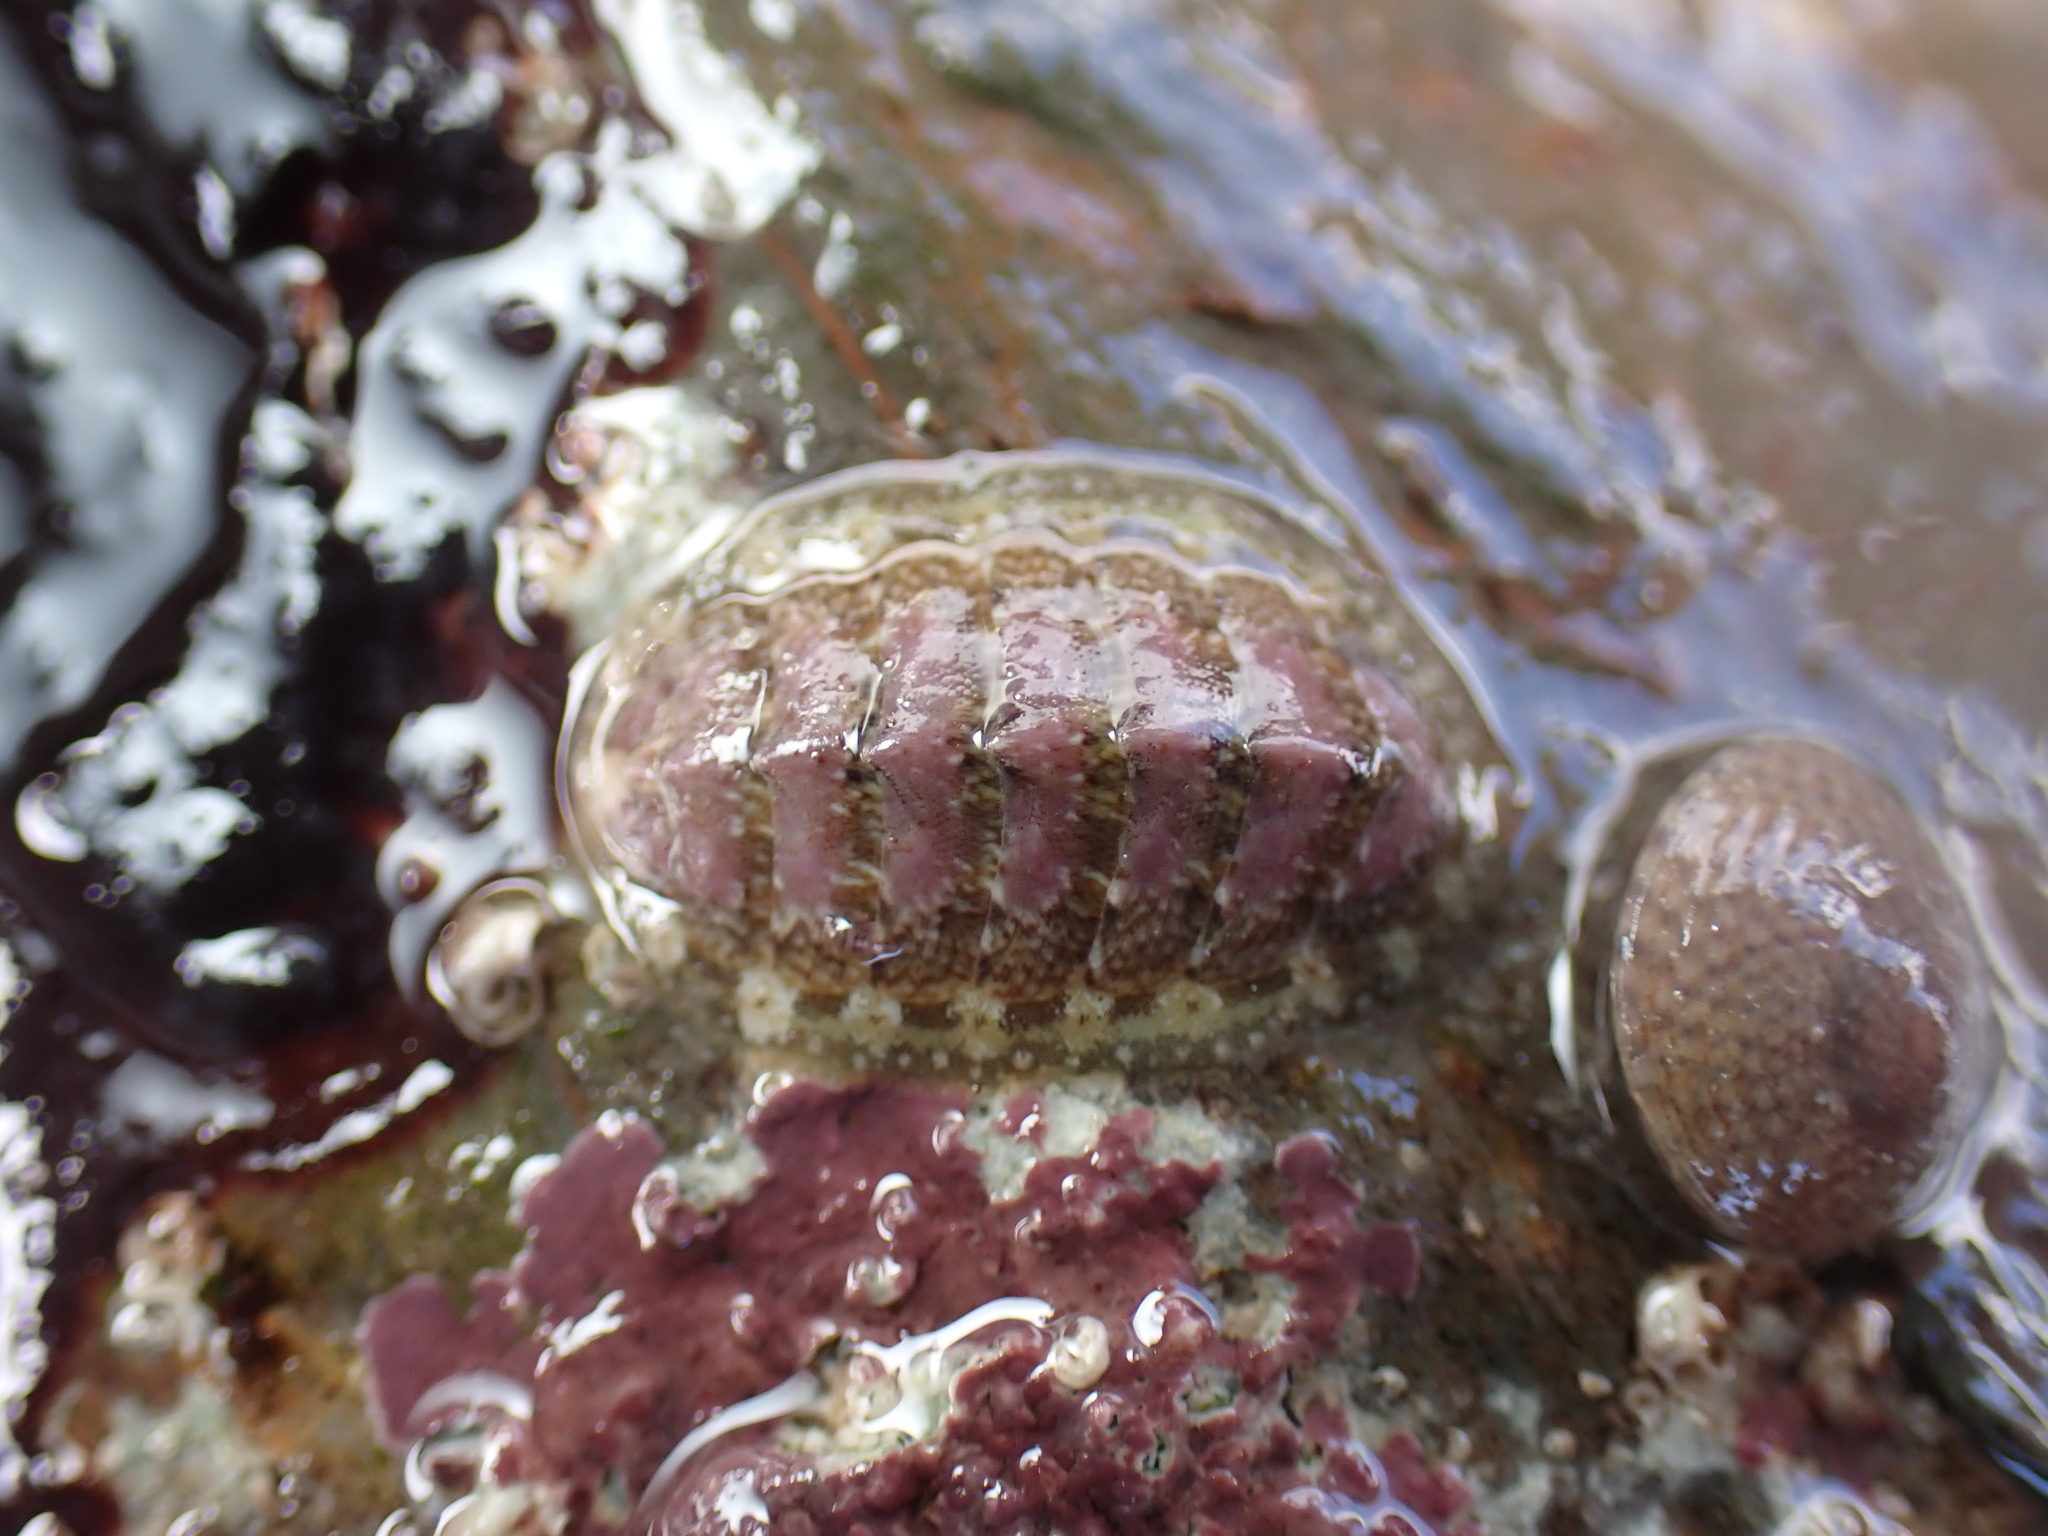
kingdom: Animalia
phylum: Mollusca
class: Polyplacophora
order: Chitonida
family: Tonicellidae
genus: Lepidochitona
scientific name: Lepidochitona cinerea
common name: Cinereous chiton
